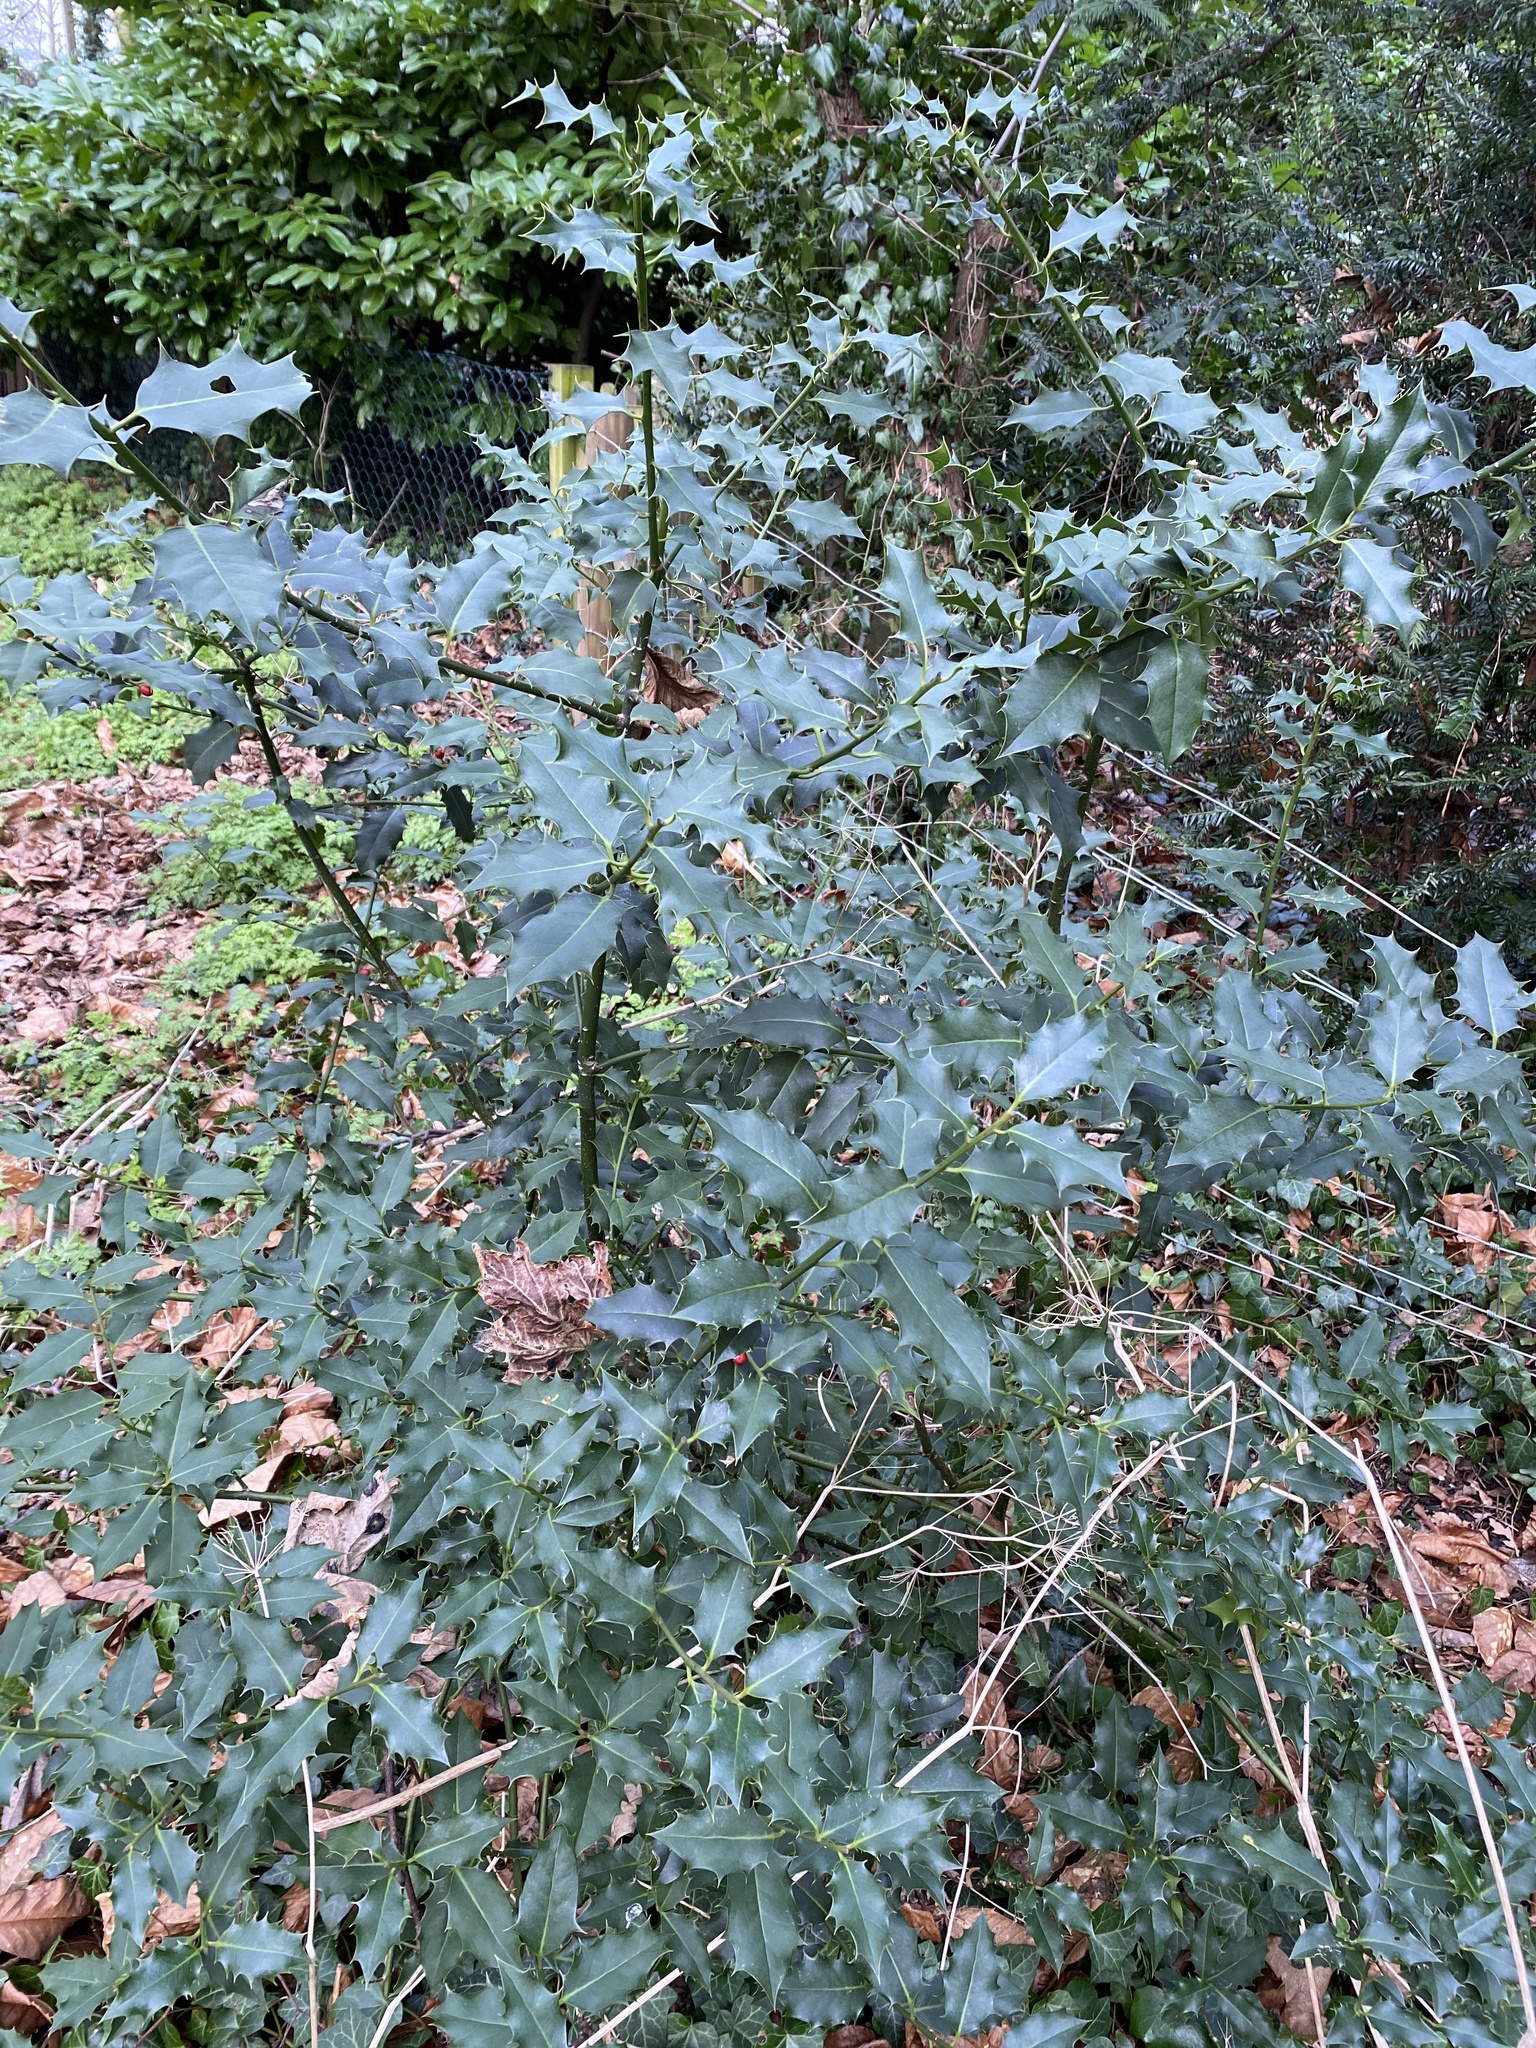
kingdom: Plantae
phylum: Tracheophyta
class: Magnoliopsida
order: Aquifoliales
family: Aquifoliaceae
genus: Ilex
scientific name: Ilex aquifolium
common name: English holly
